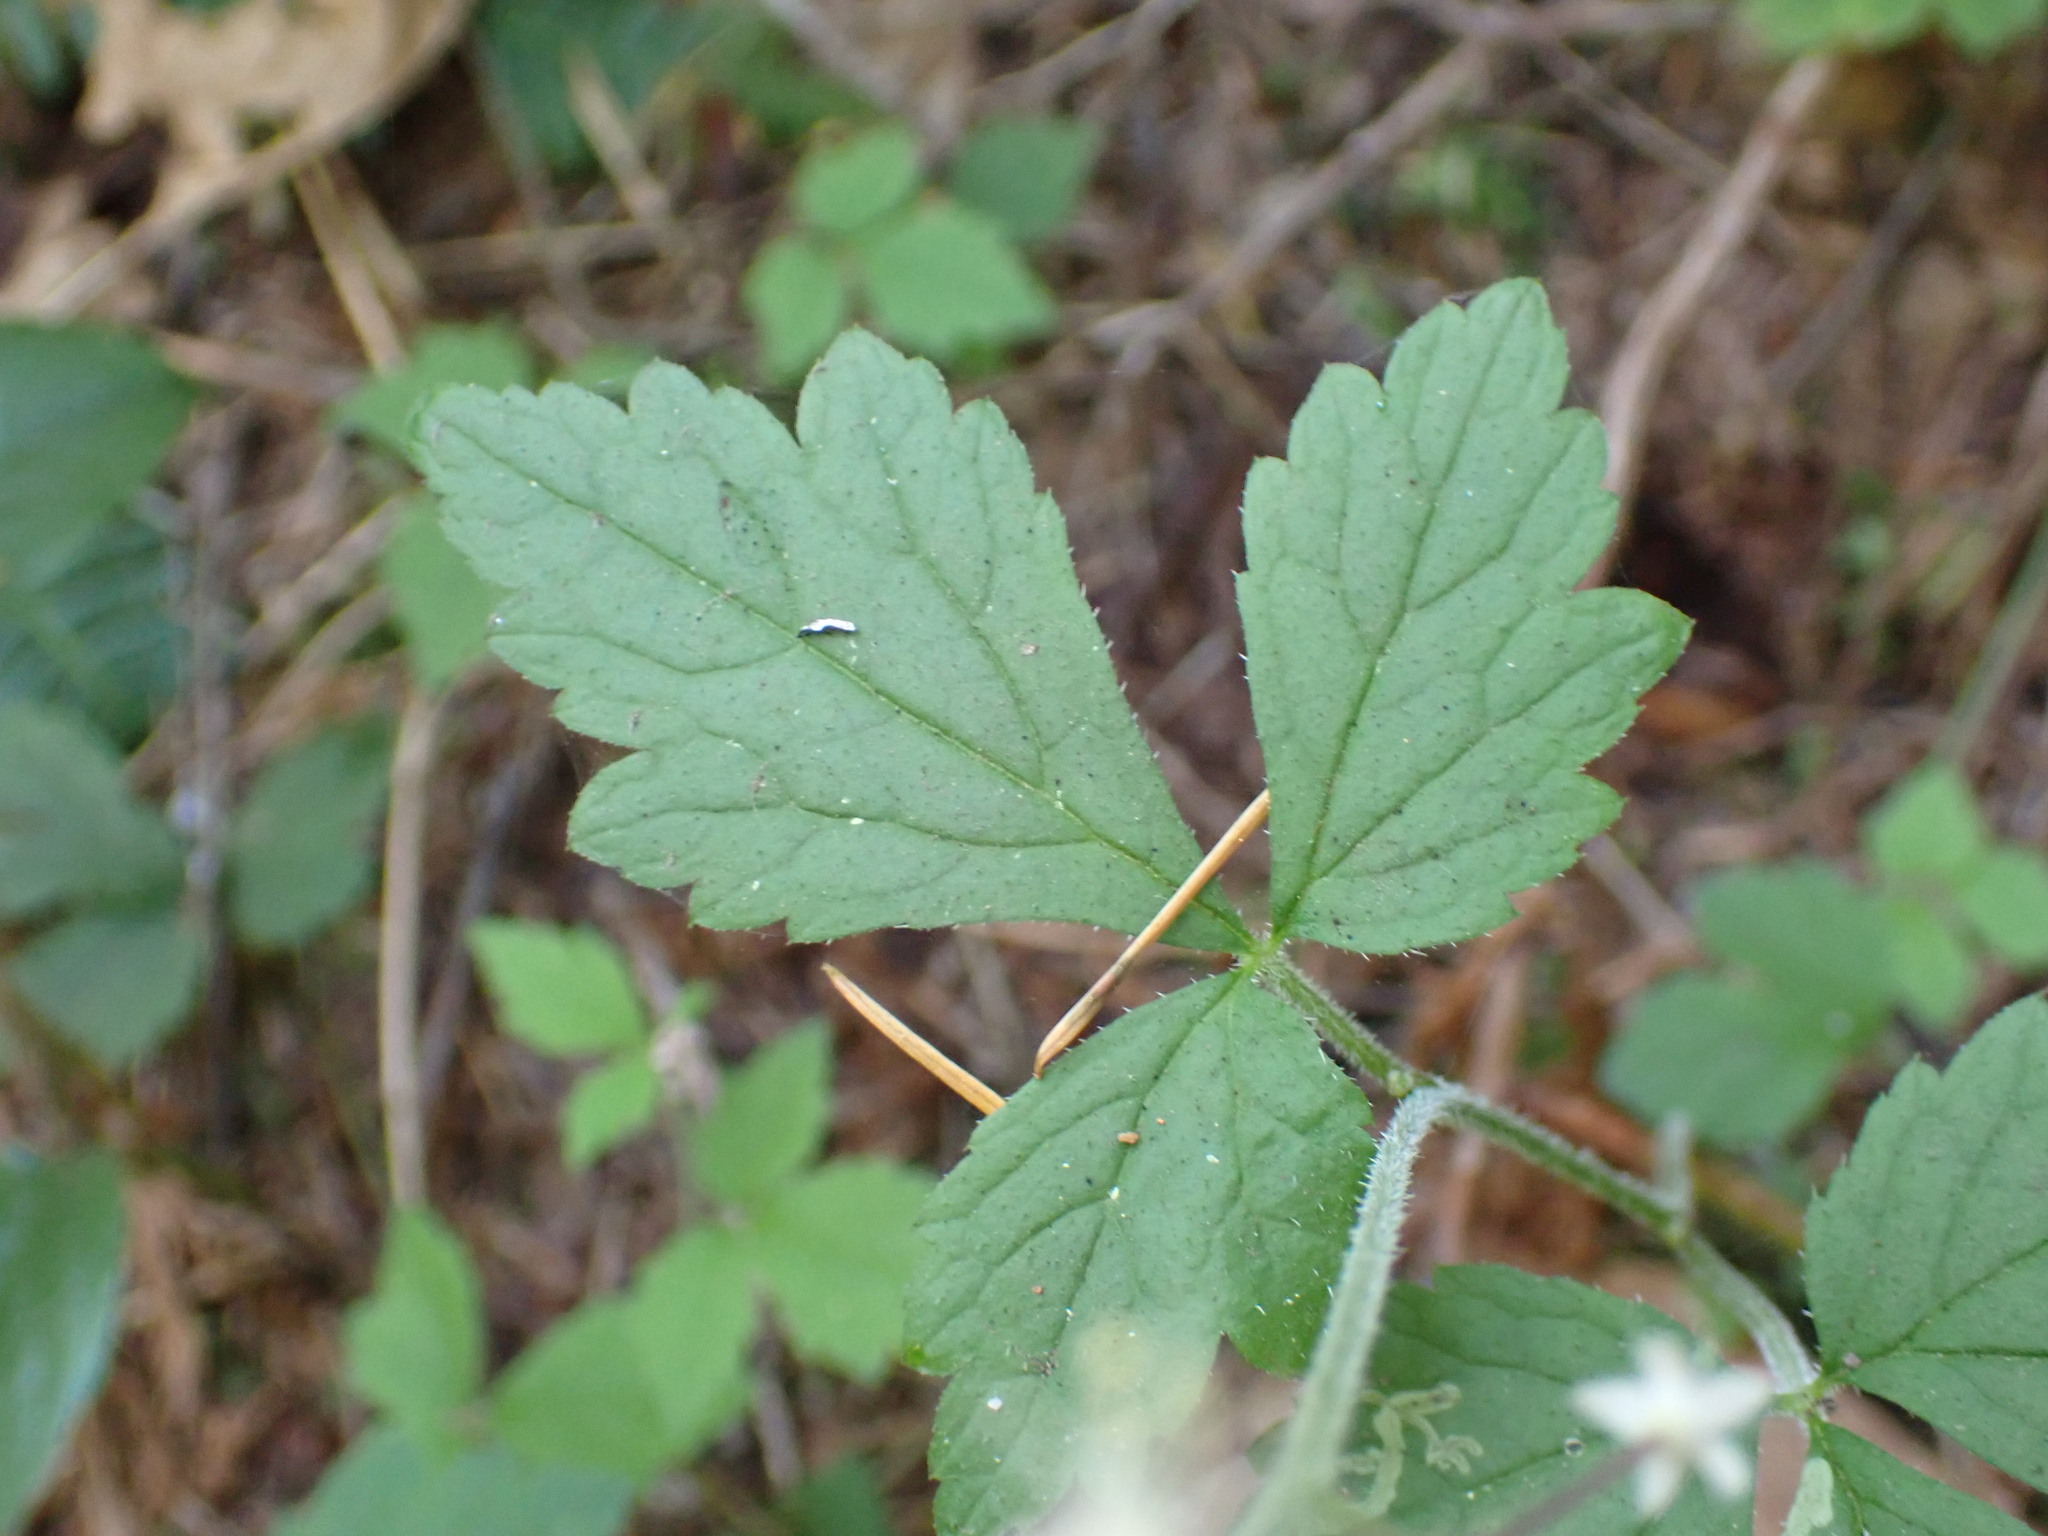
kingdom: Plantae
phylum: Tracheophyta
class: Magnoliopsida
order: Saxifragales
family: Saxifragaceae
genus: Tiarella
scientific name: Tiarella trifoliata
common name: Sugar-scoop
